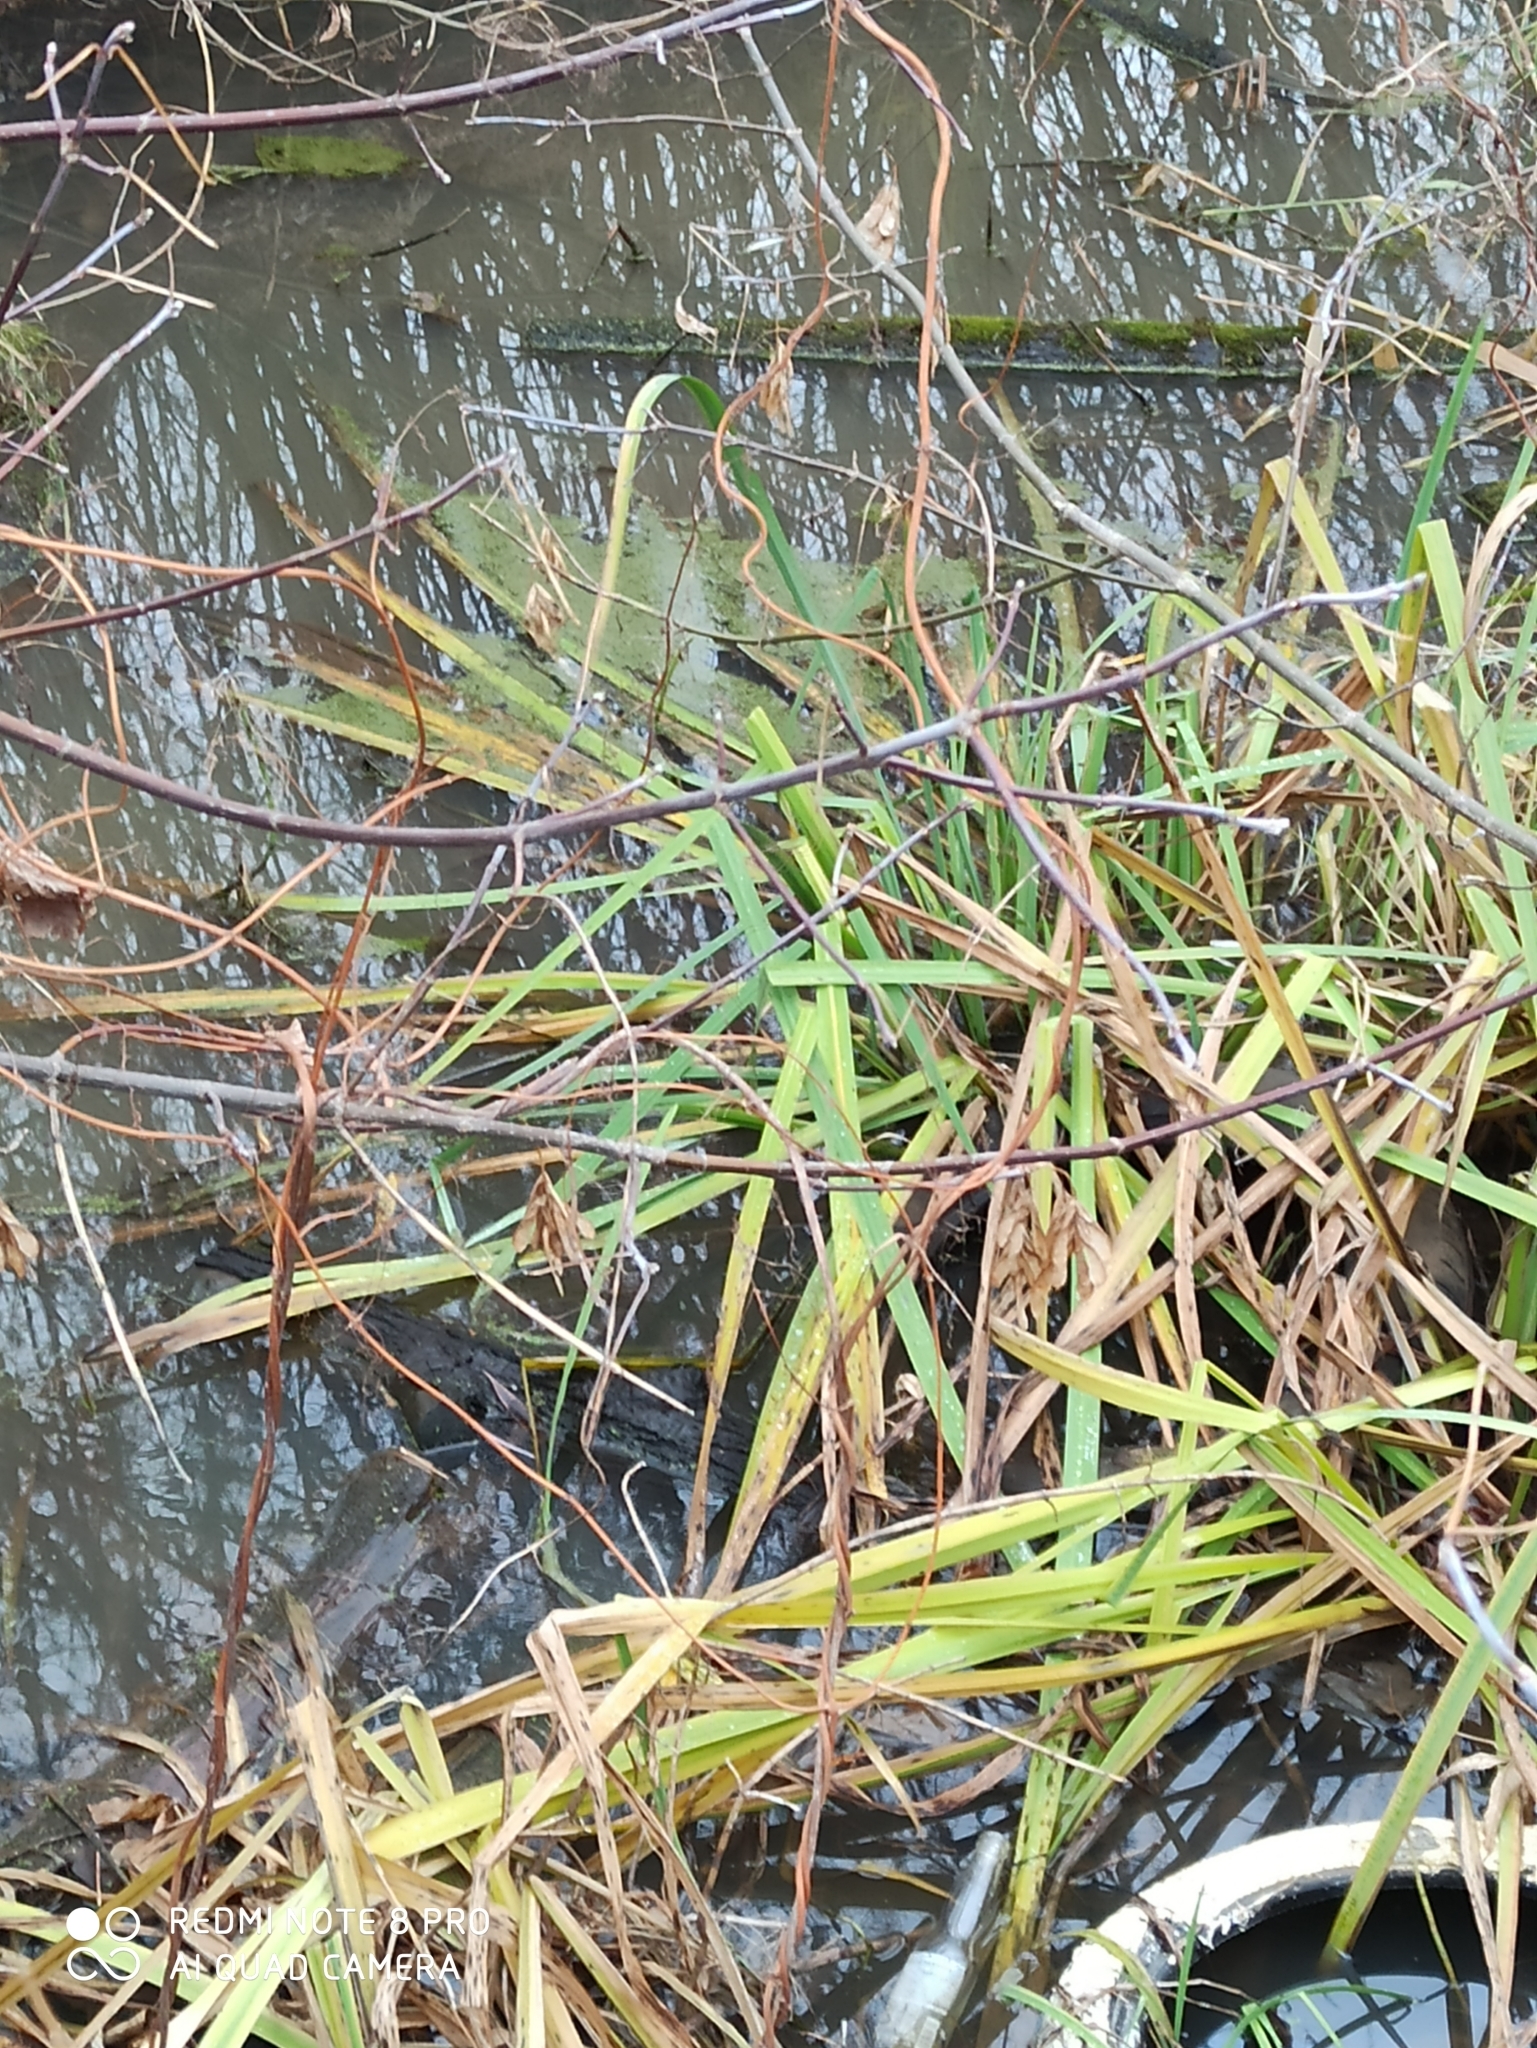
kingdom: Plantae
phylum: Tracheophyta
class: Liliopsida
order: Asparagales
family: Iridaceae
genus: Iris
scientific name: Iris pseudacorus
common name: Yellow flag
